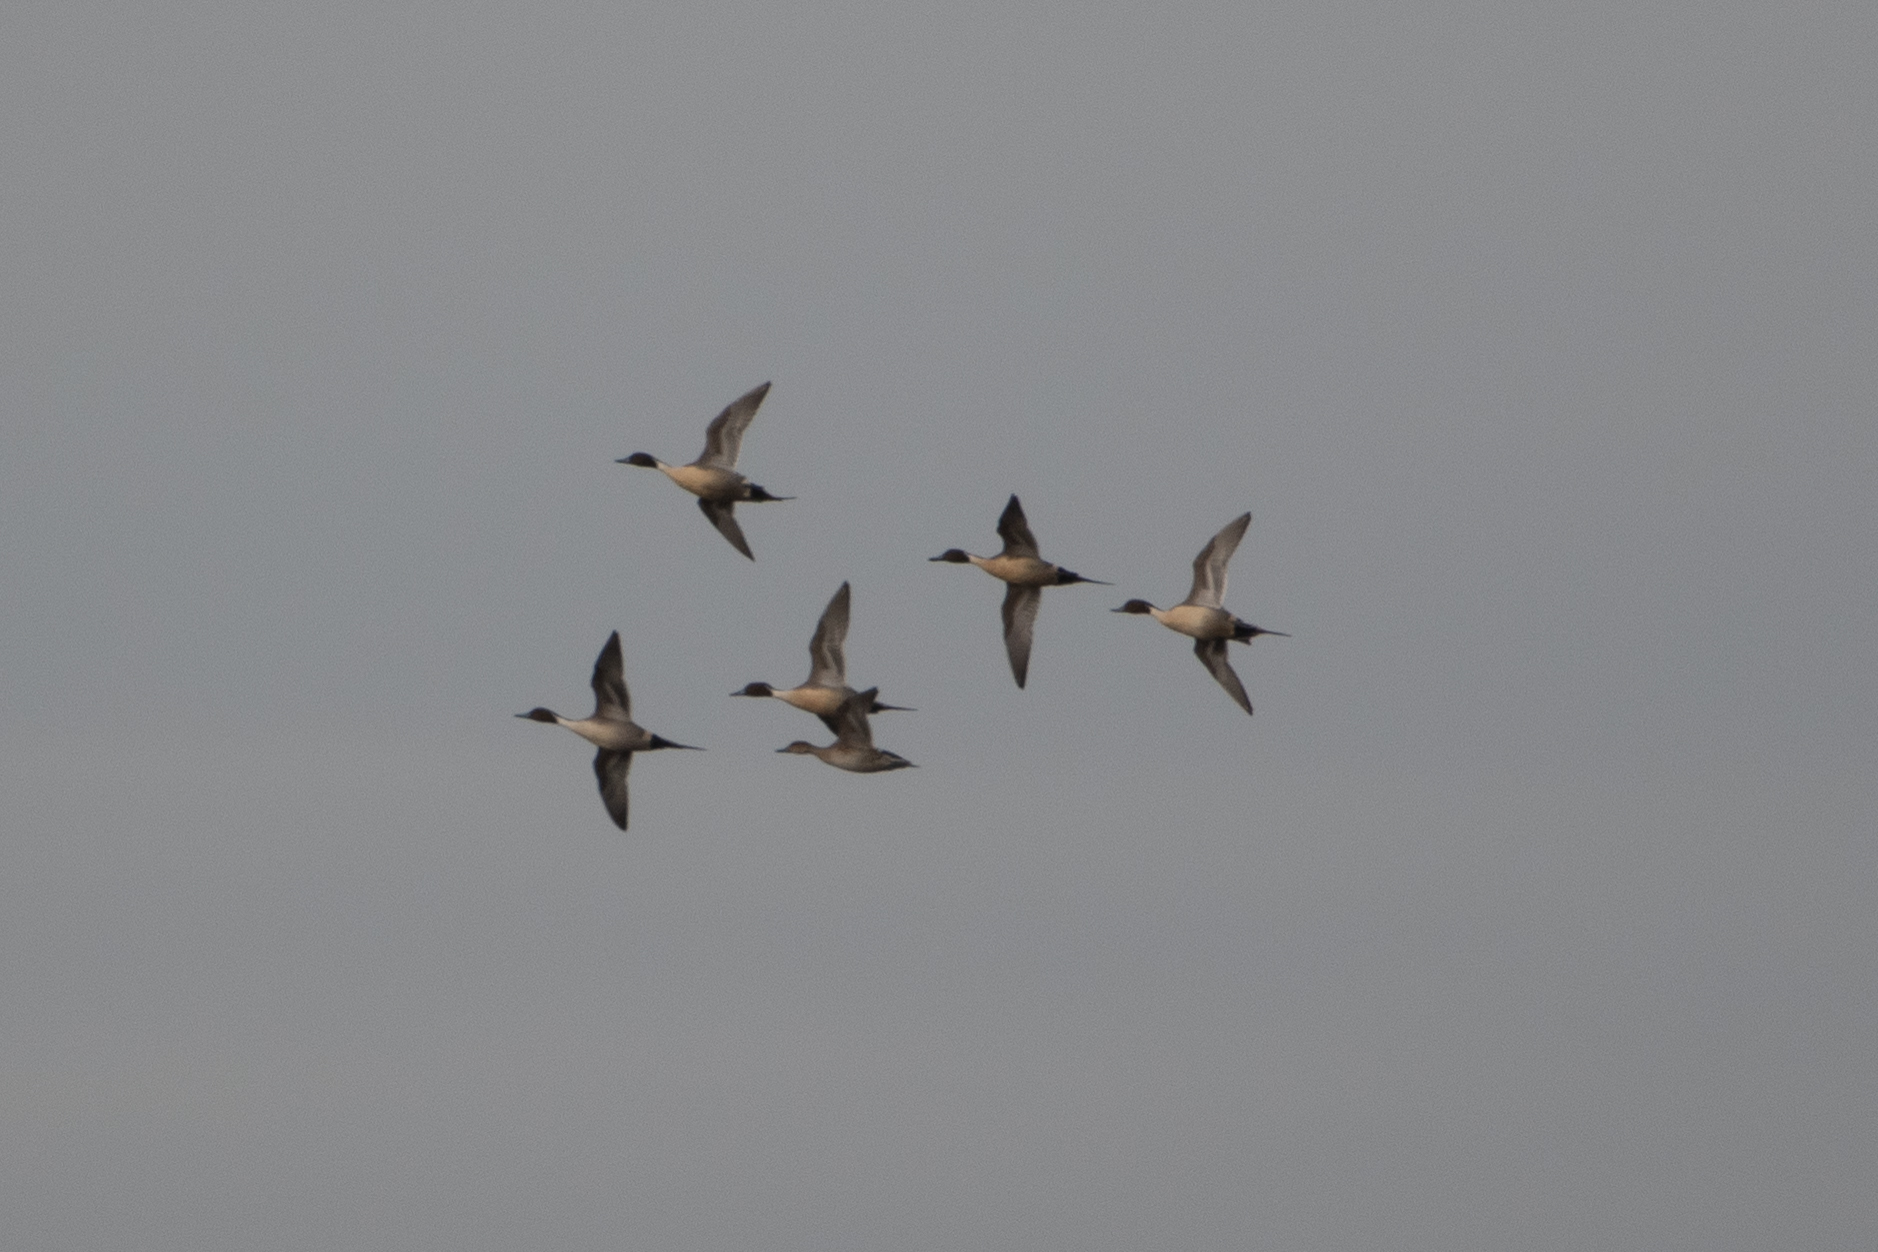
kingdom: Animalia
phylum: Chordata
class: Aves
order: Anseriformes
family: Anatidae
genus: Anas
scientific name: Anas acuta
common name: Northern pintail
